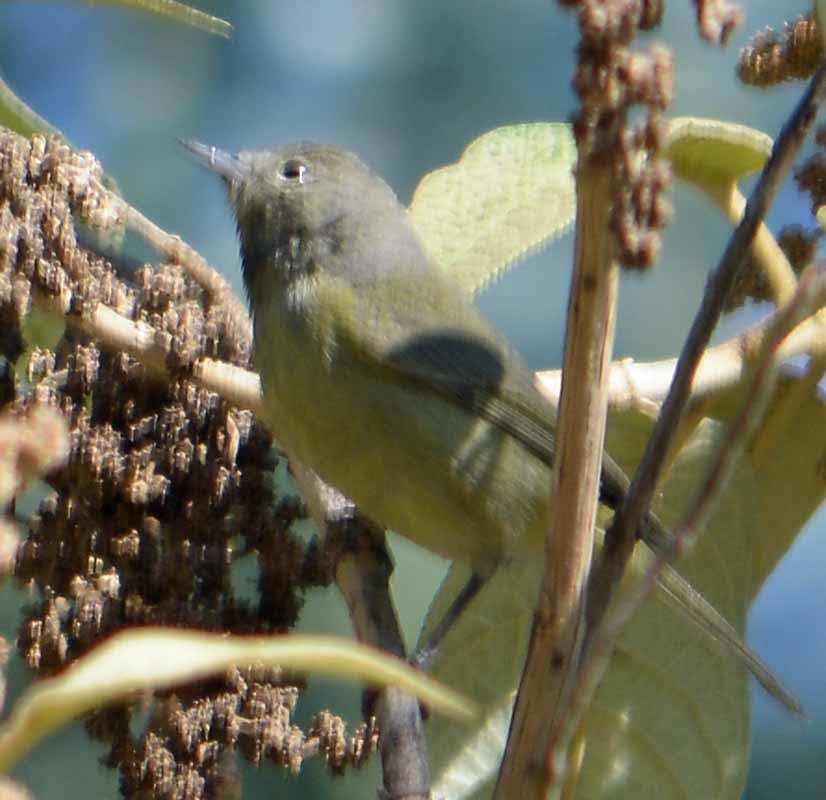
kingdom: Animalia
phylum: Chordata
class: Aves
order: Passeriformes
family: Parulidae
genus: Leiothlypis
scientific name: Leiothlypis celata
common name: Orange-crowned warbler
